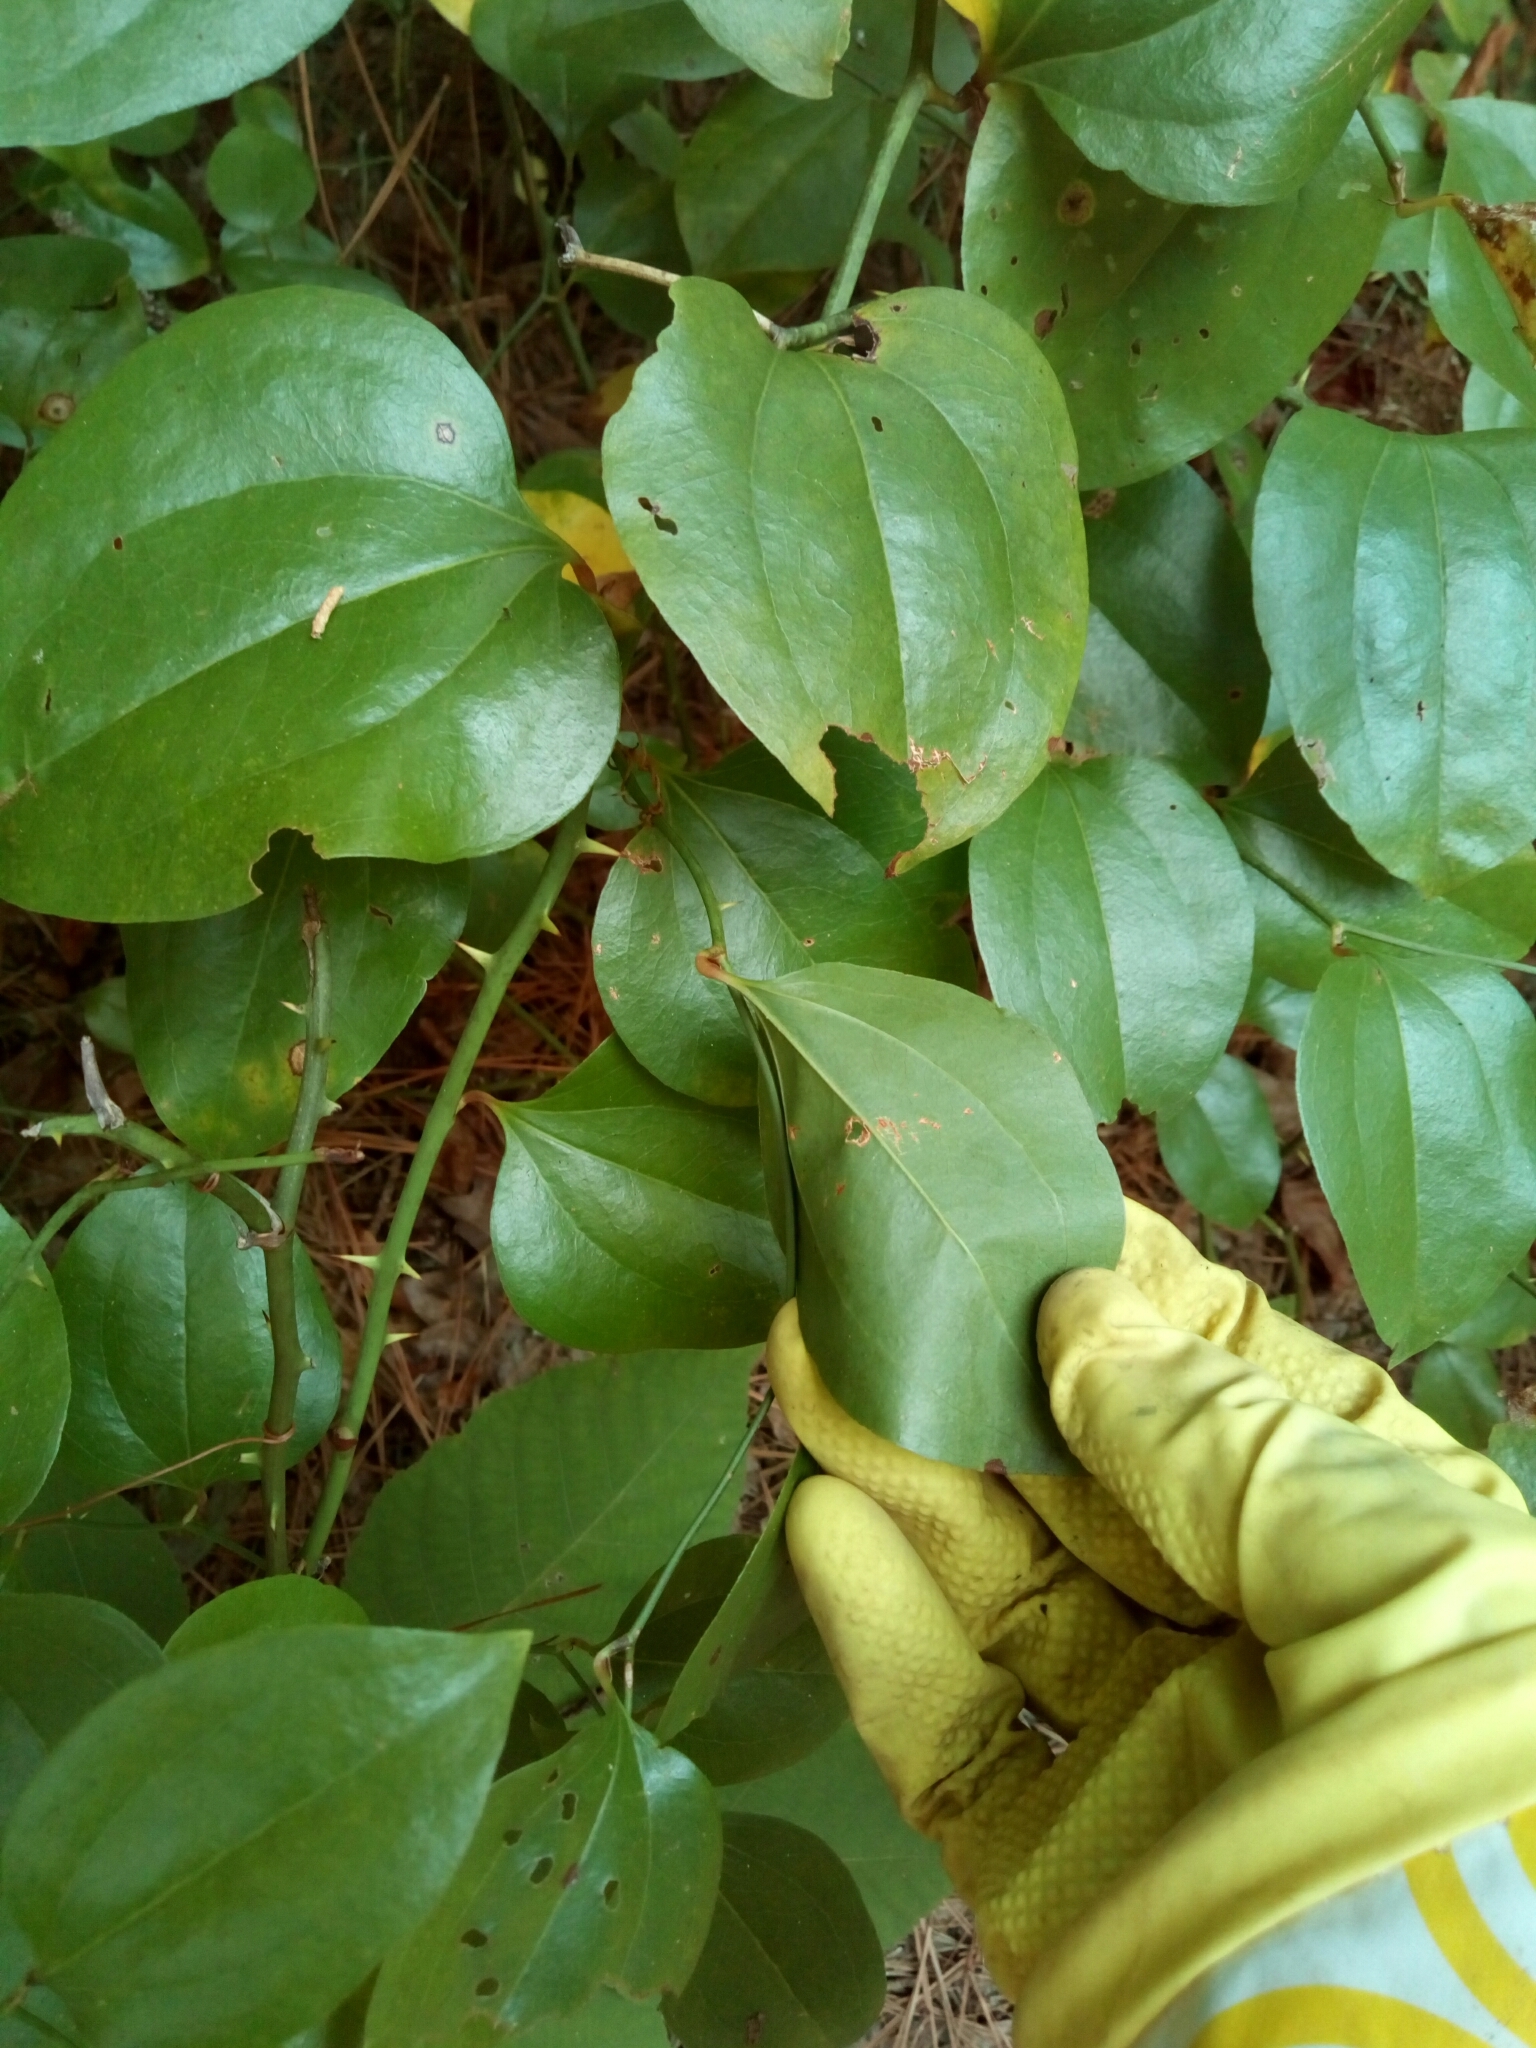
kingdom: Plantae
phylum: Tracheophyta
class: Liliopsida
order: Liliales
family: Smilacaceae
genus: Smilax
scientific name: Smilax rotundifolia
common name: Bullbriar
